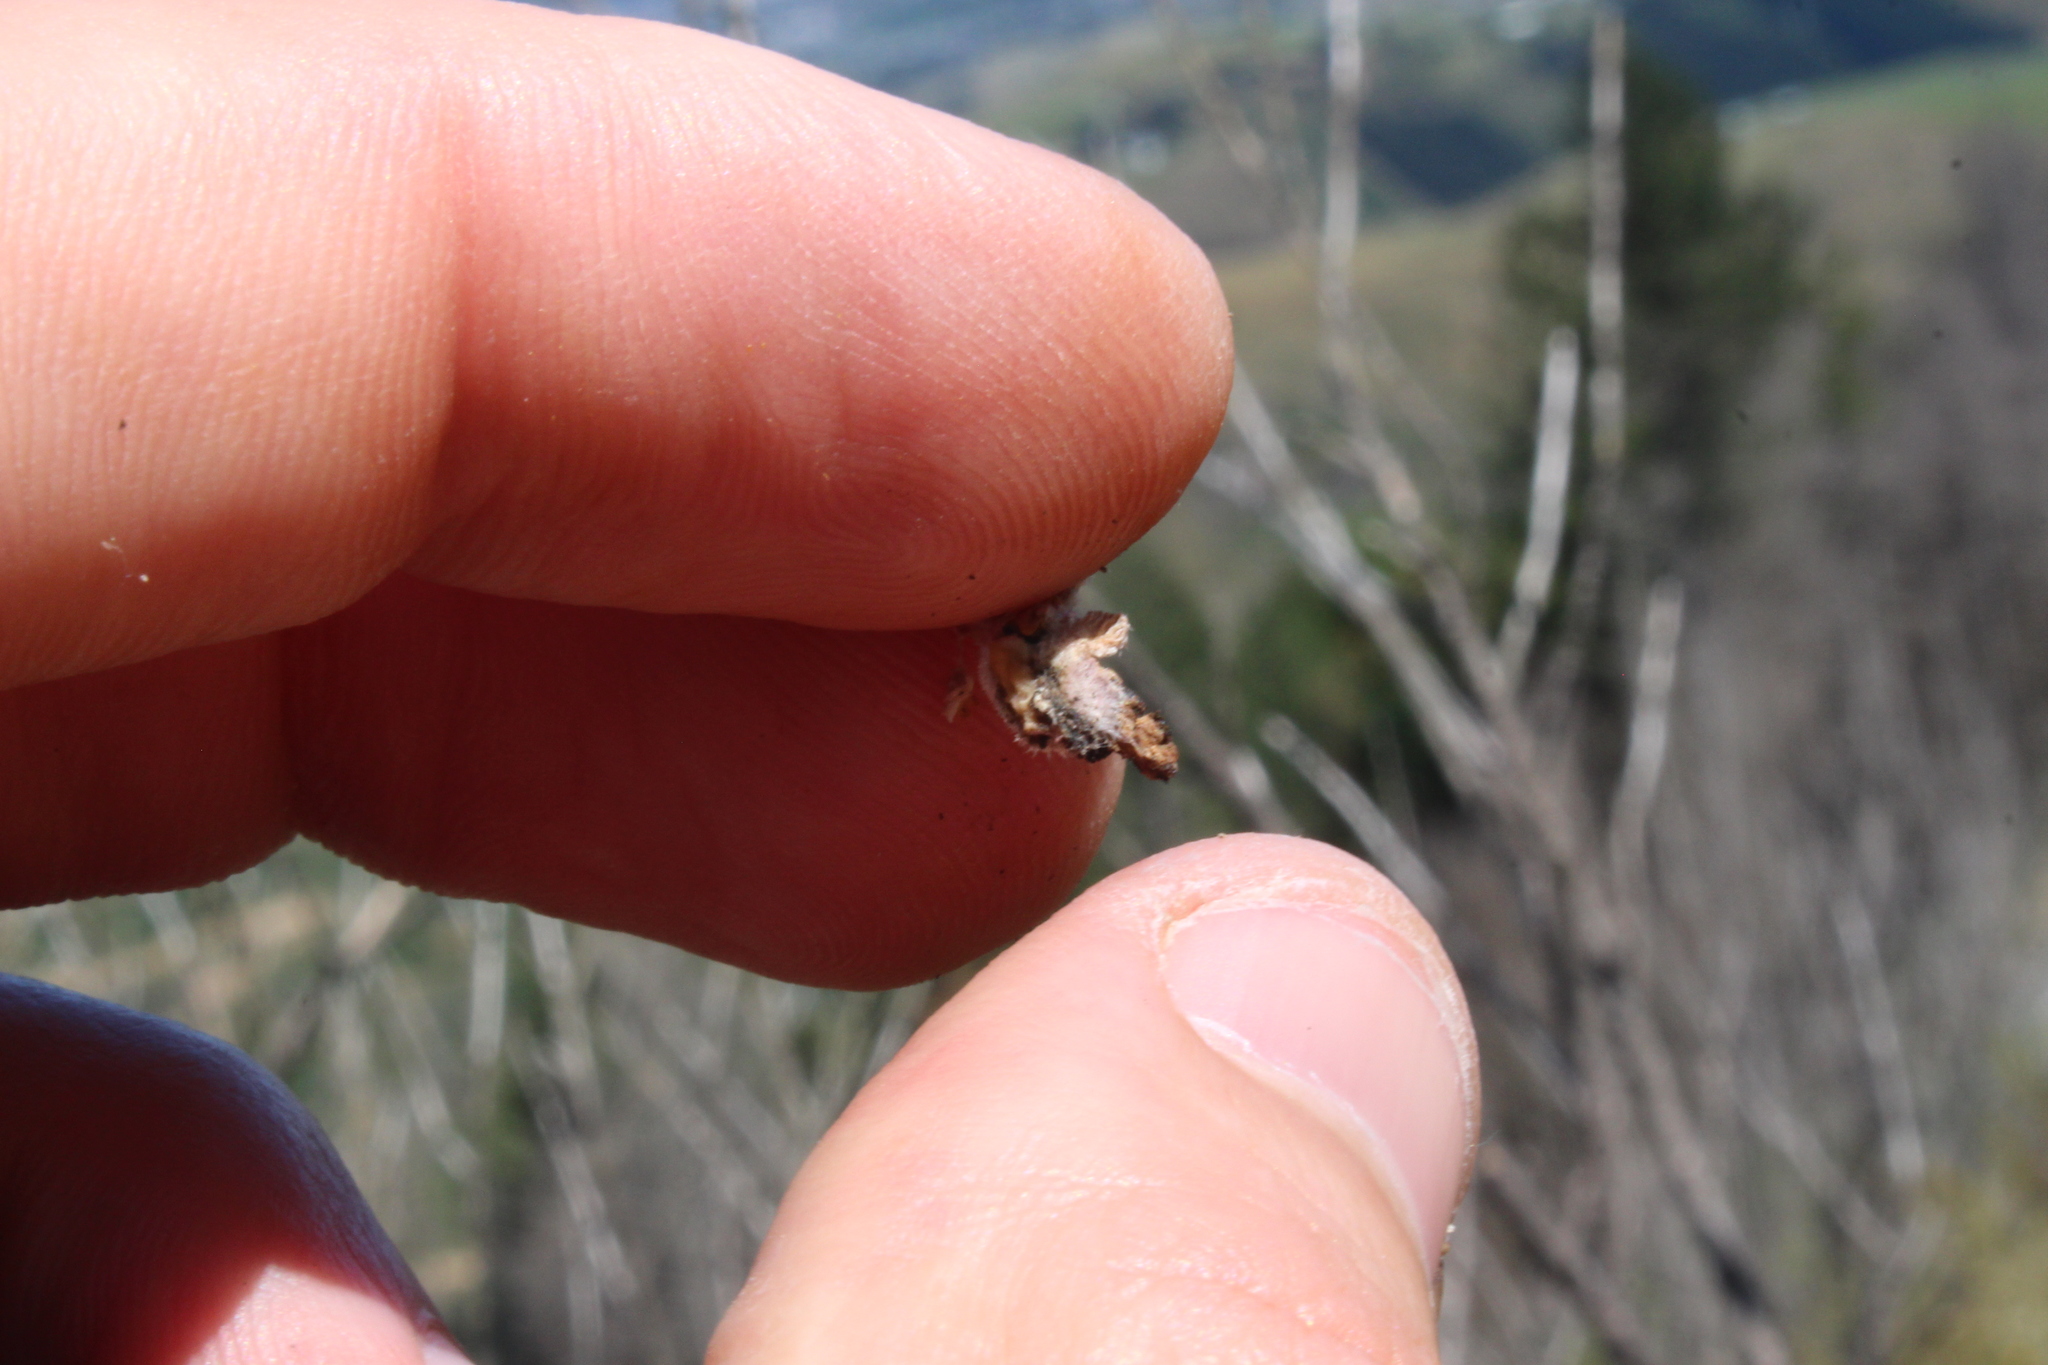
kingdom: Fungi
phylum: Basidiomycota
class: Agaricomycetes
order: Agaricales
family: Schizophyllaceae
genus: Schizophyllum
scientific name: Schizophyllum commune
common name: Common porecrust
